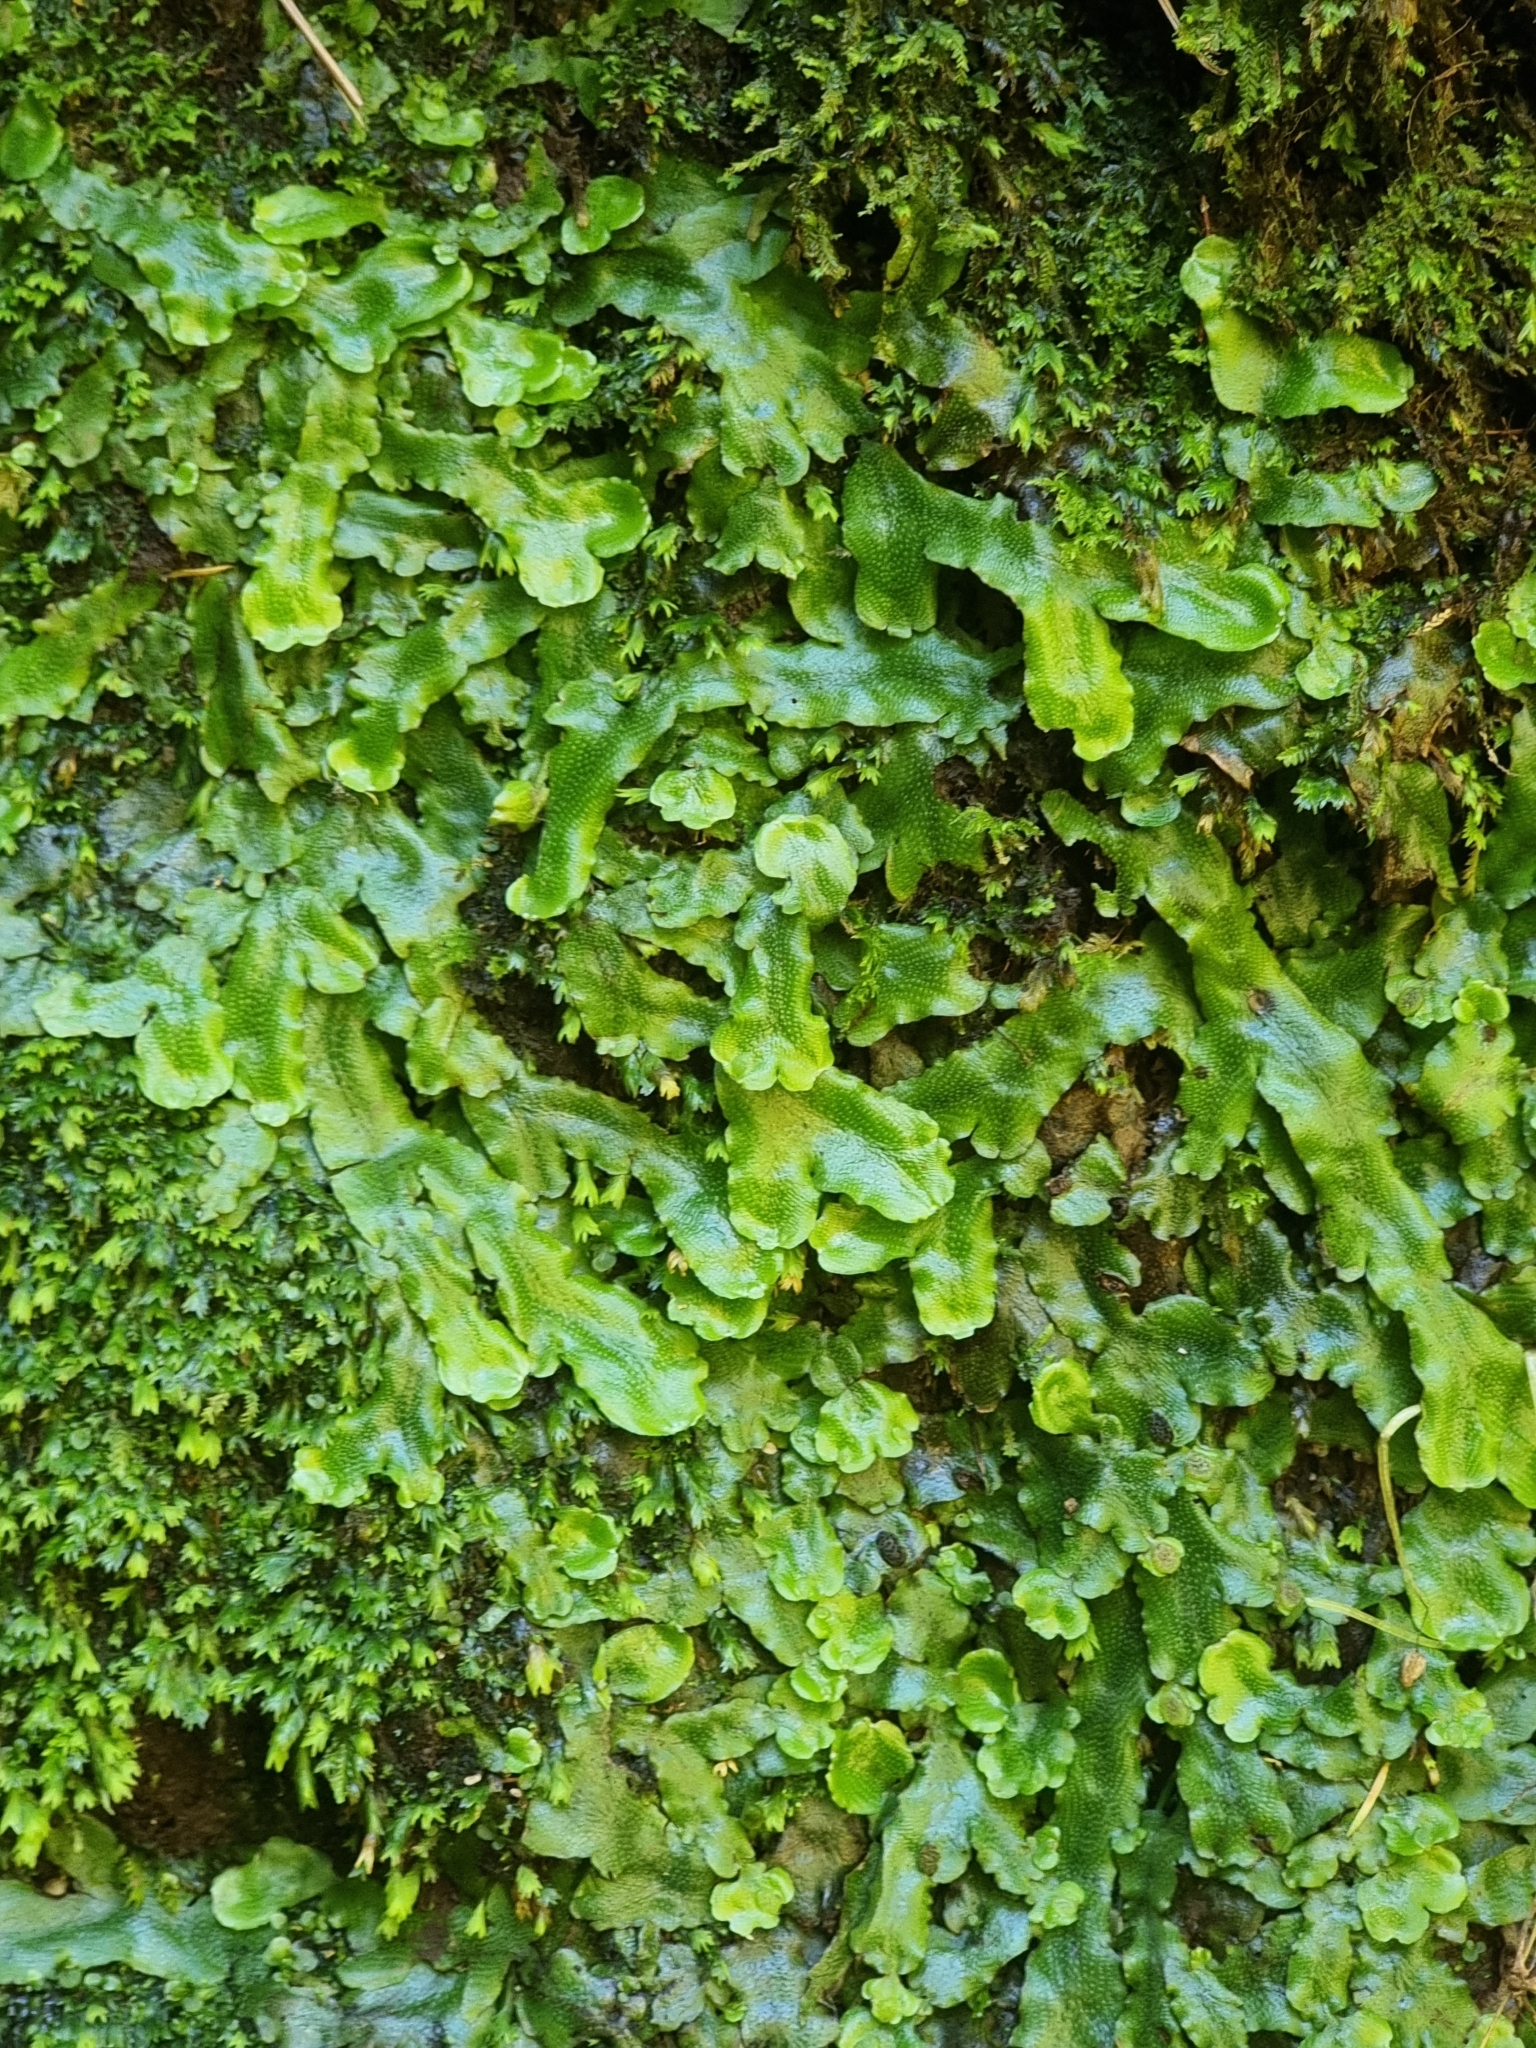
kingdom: Plantae
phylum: Marchantiophyta
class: Marchantiopsida
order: Marchantiales
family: Conocephalaceae
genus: Conocephalum
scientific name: Conocephalum conicum
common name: Great scented liverwort
